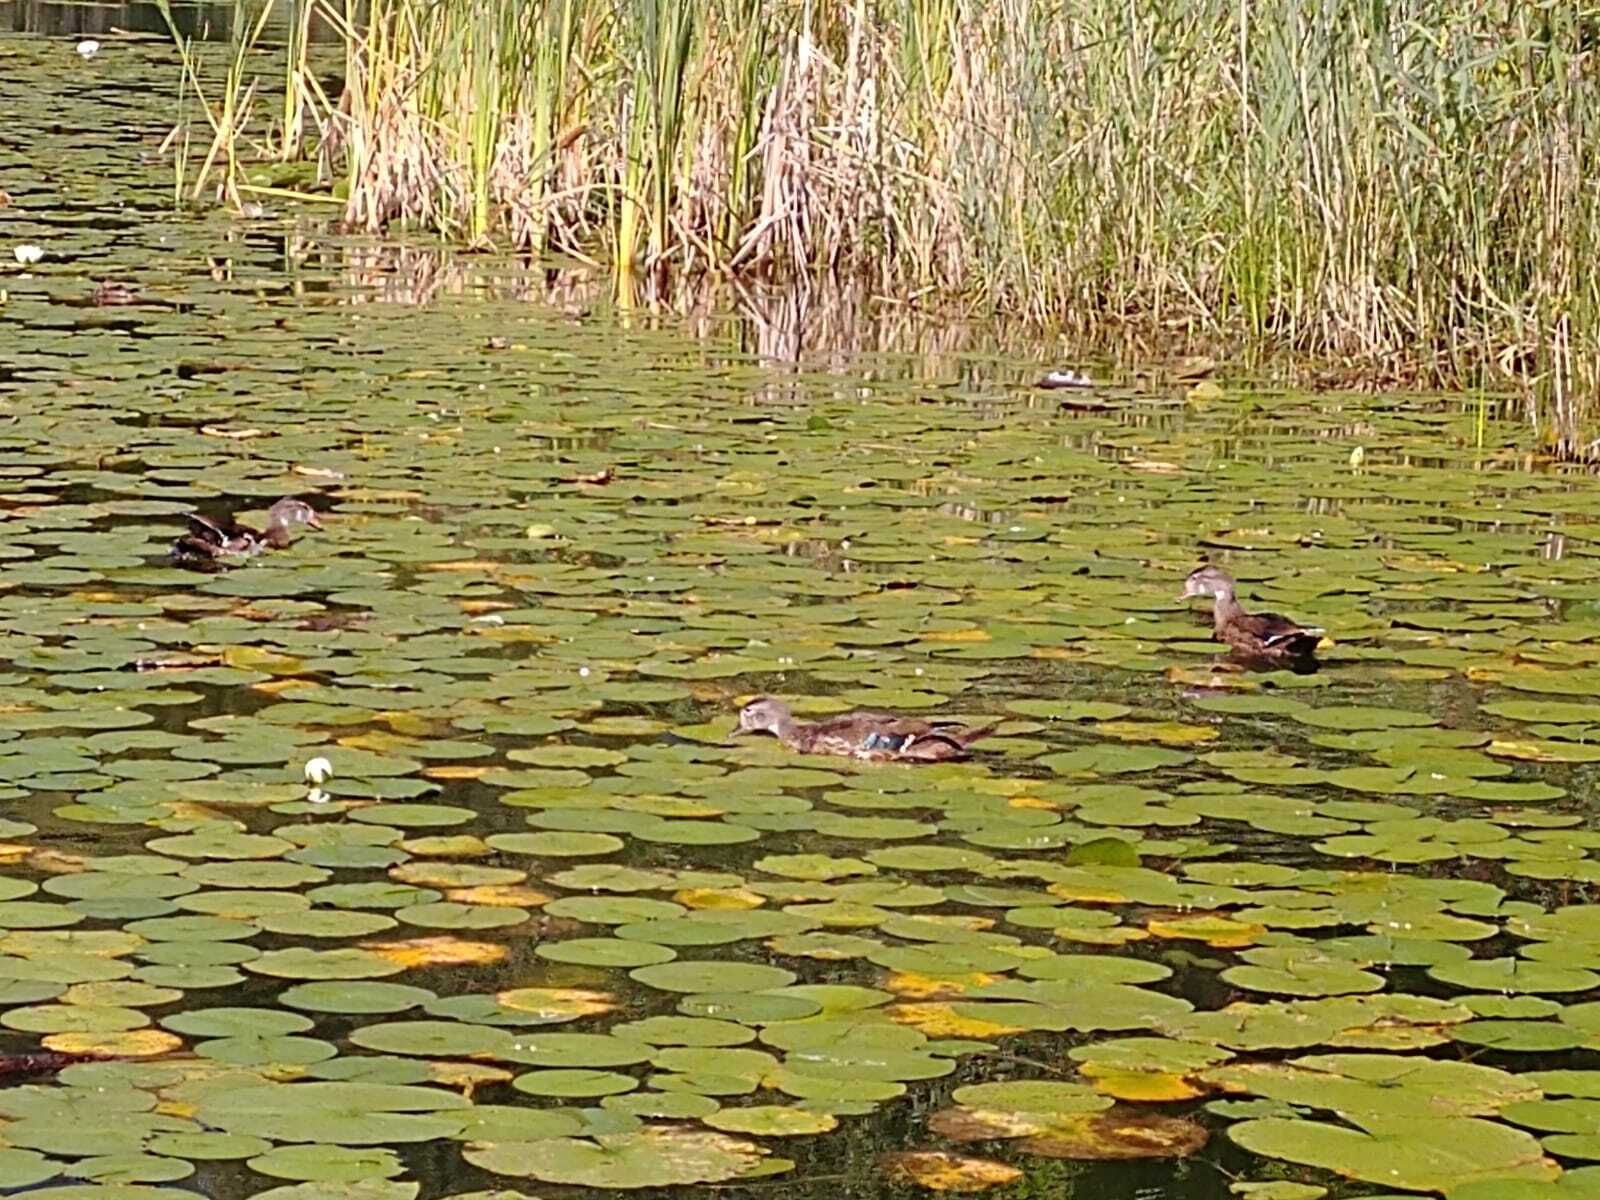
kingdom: Animalia
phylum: Chordata
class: Aves
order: Anseriformes
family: Anatidae
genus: Aix
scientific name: Aix sponsa
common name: Wood duck
